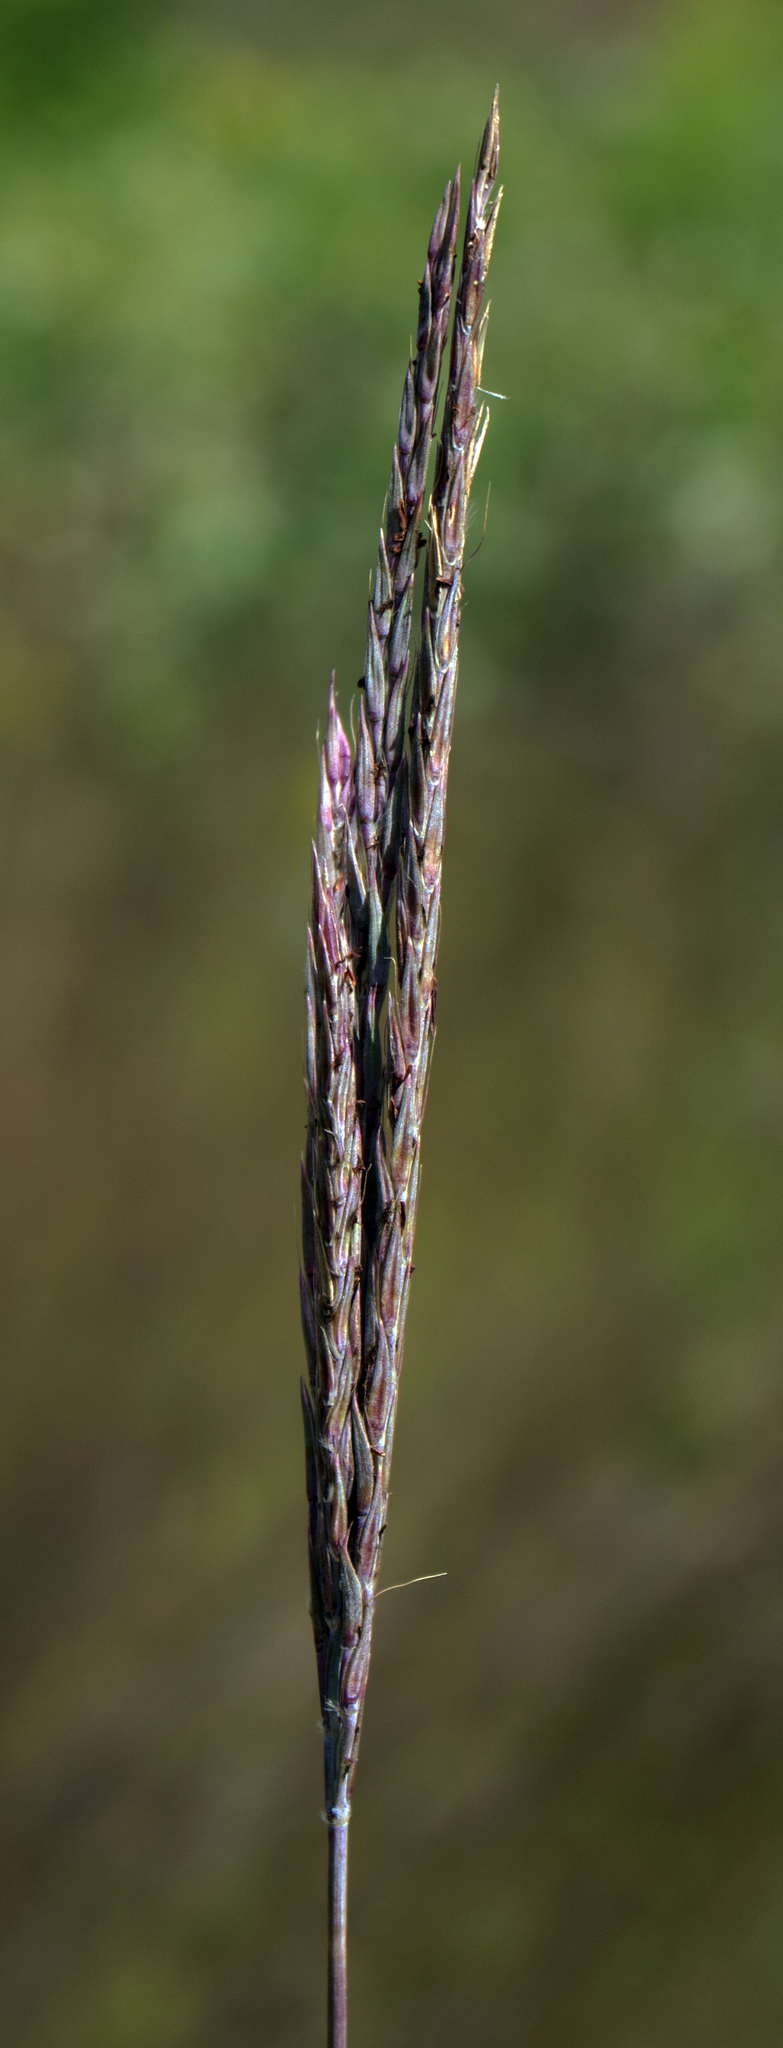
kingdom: Plantae
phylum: Tracheophyta
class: Liliopsida
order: Poales
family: Poaceae
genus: Andropogon
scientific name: Andropogon gerardi
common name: Big bluestem
